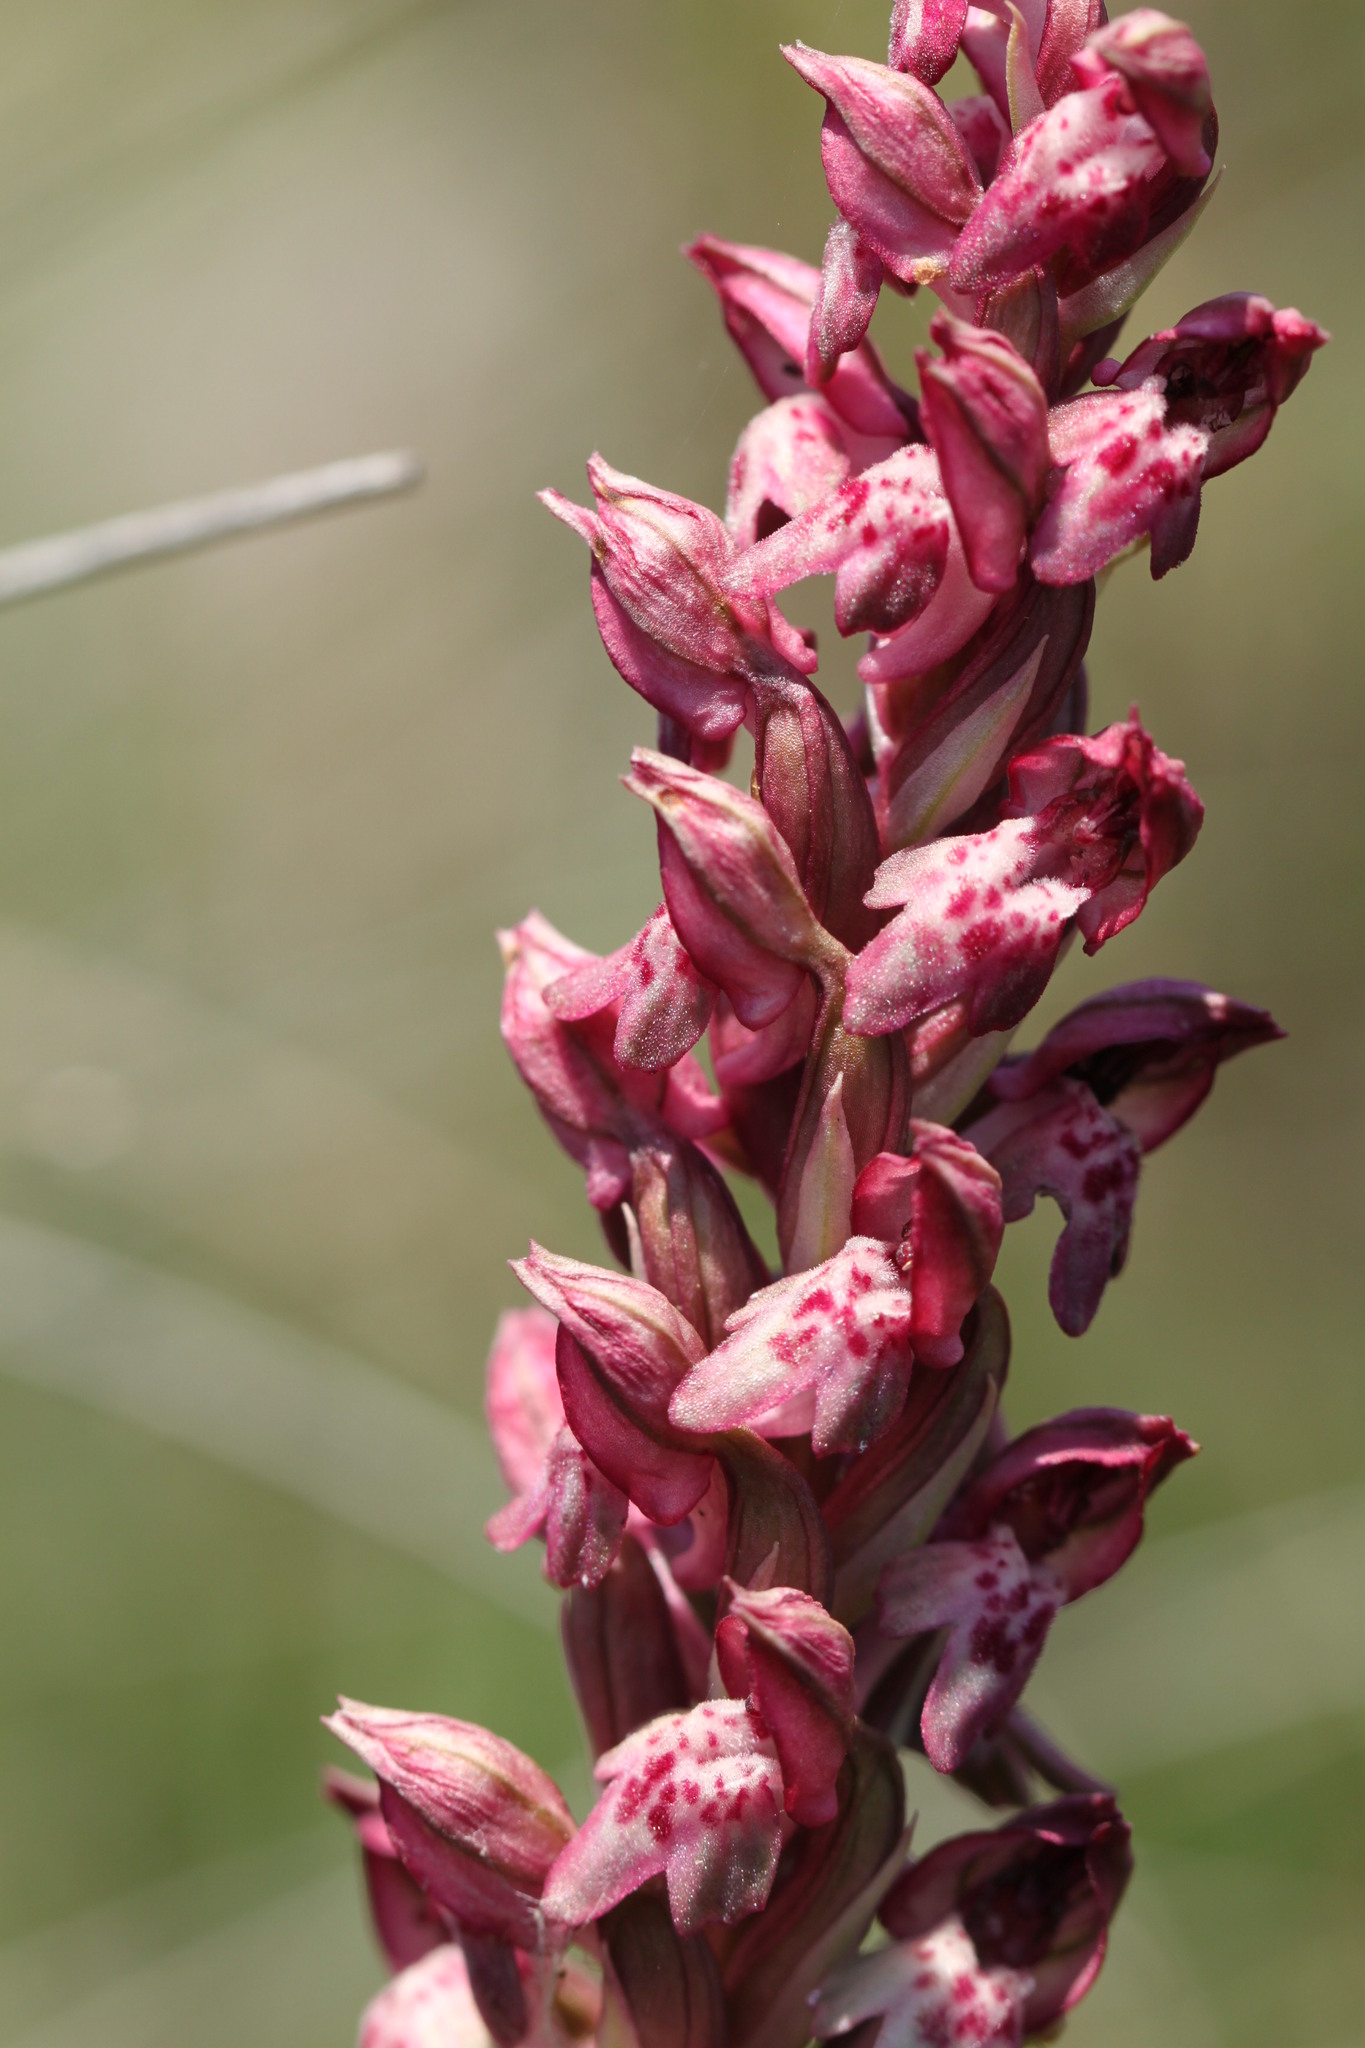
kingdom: Plantae
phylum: Tracheophyta
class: Liliopsida
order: Asparagales
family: Orchidaceae
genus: Anacamptis
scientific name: Anacamptis coriophora
